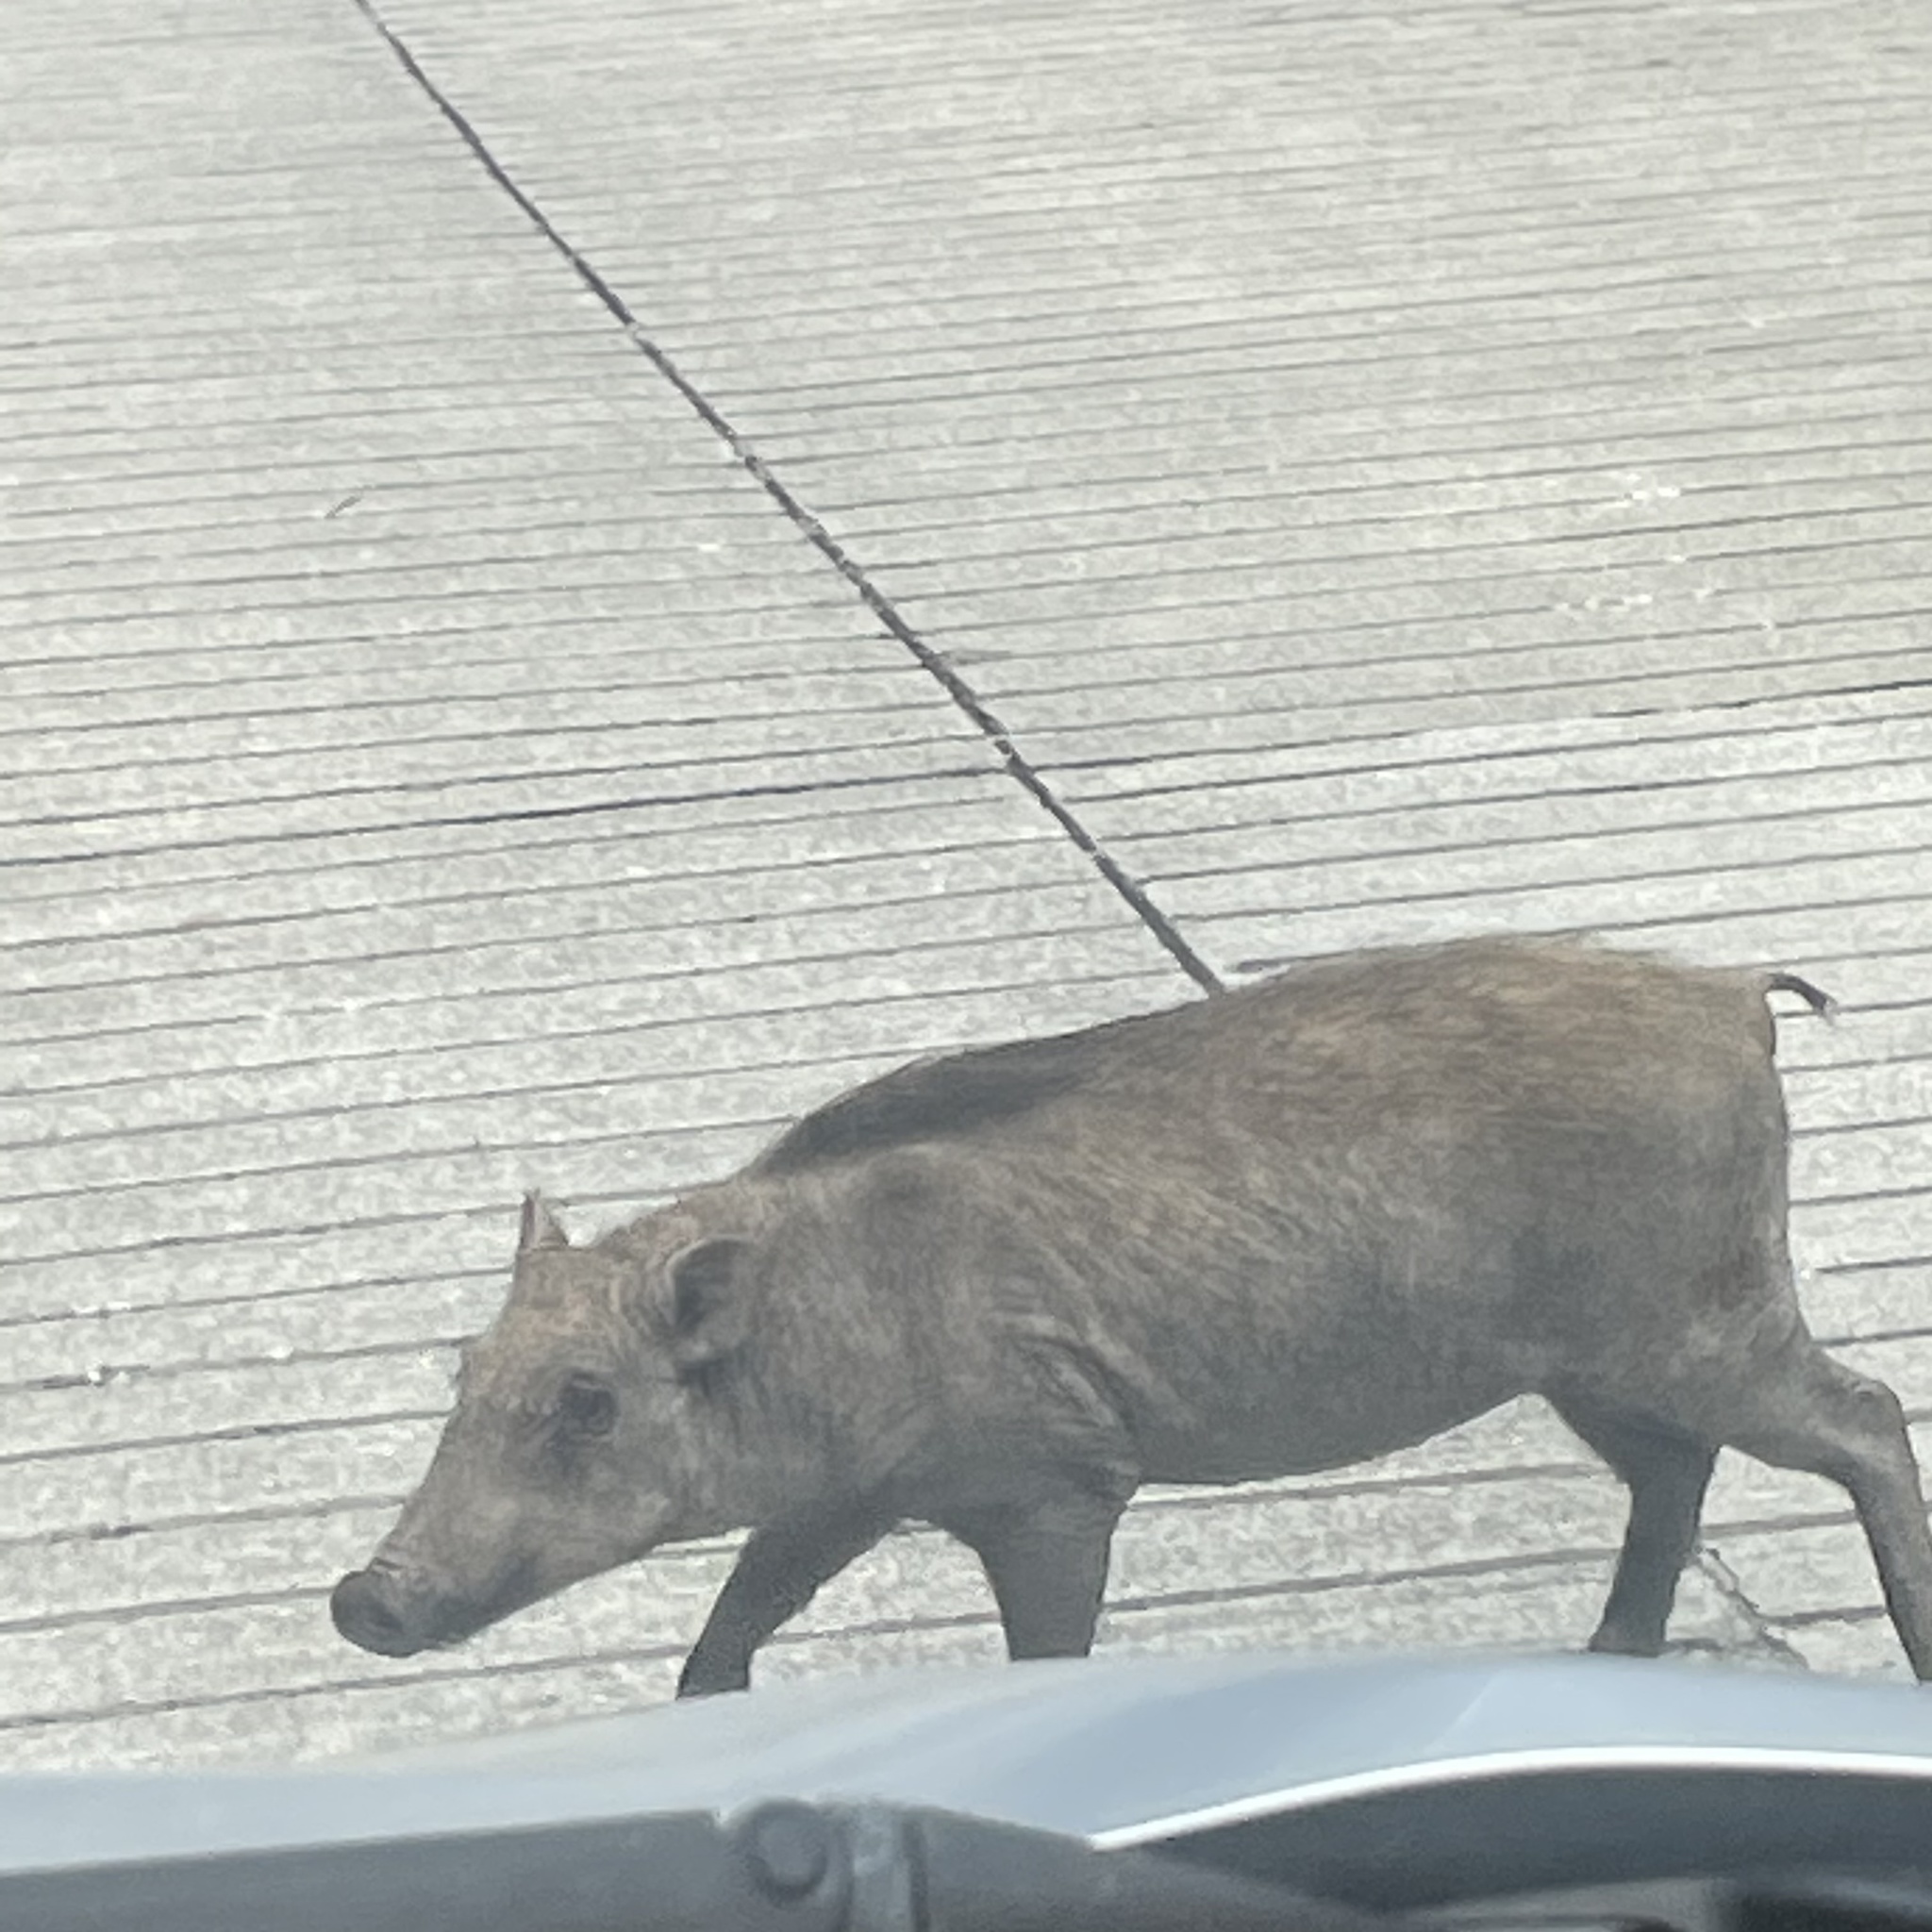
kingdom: Animalia
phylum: Chordata
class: Mammalia
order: Artiodactyla
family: Suidae
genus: Sus
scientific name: Sus scrofa
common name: Wild boar
